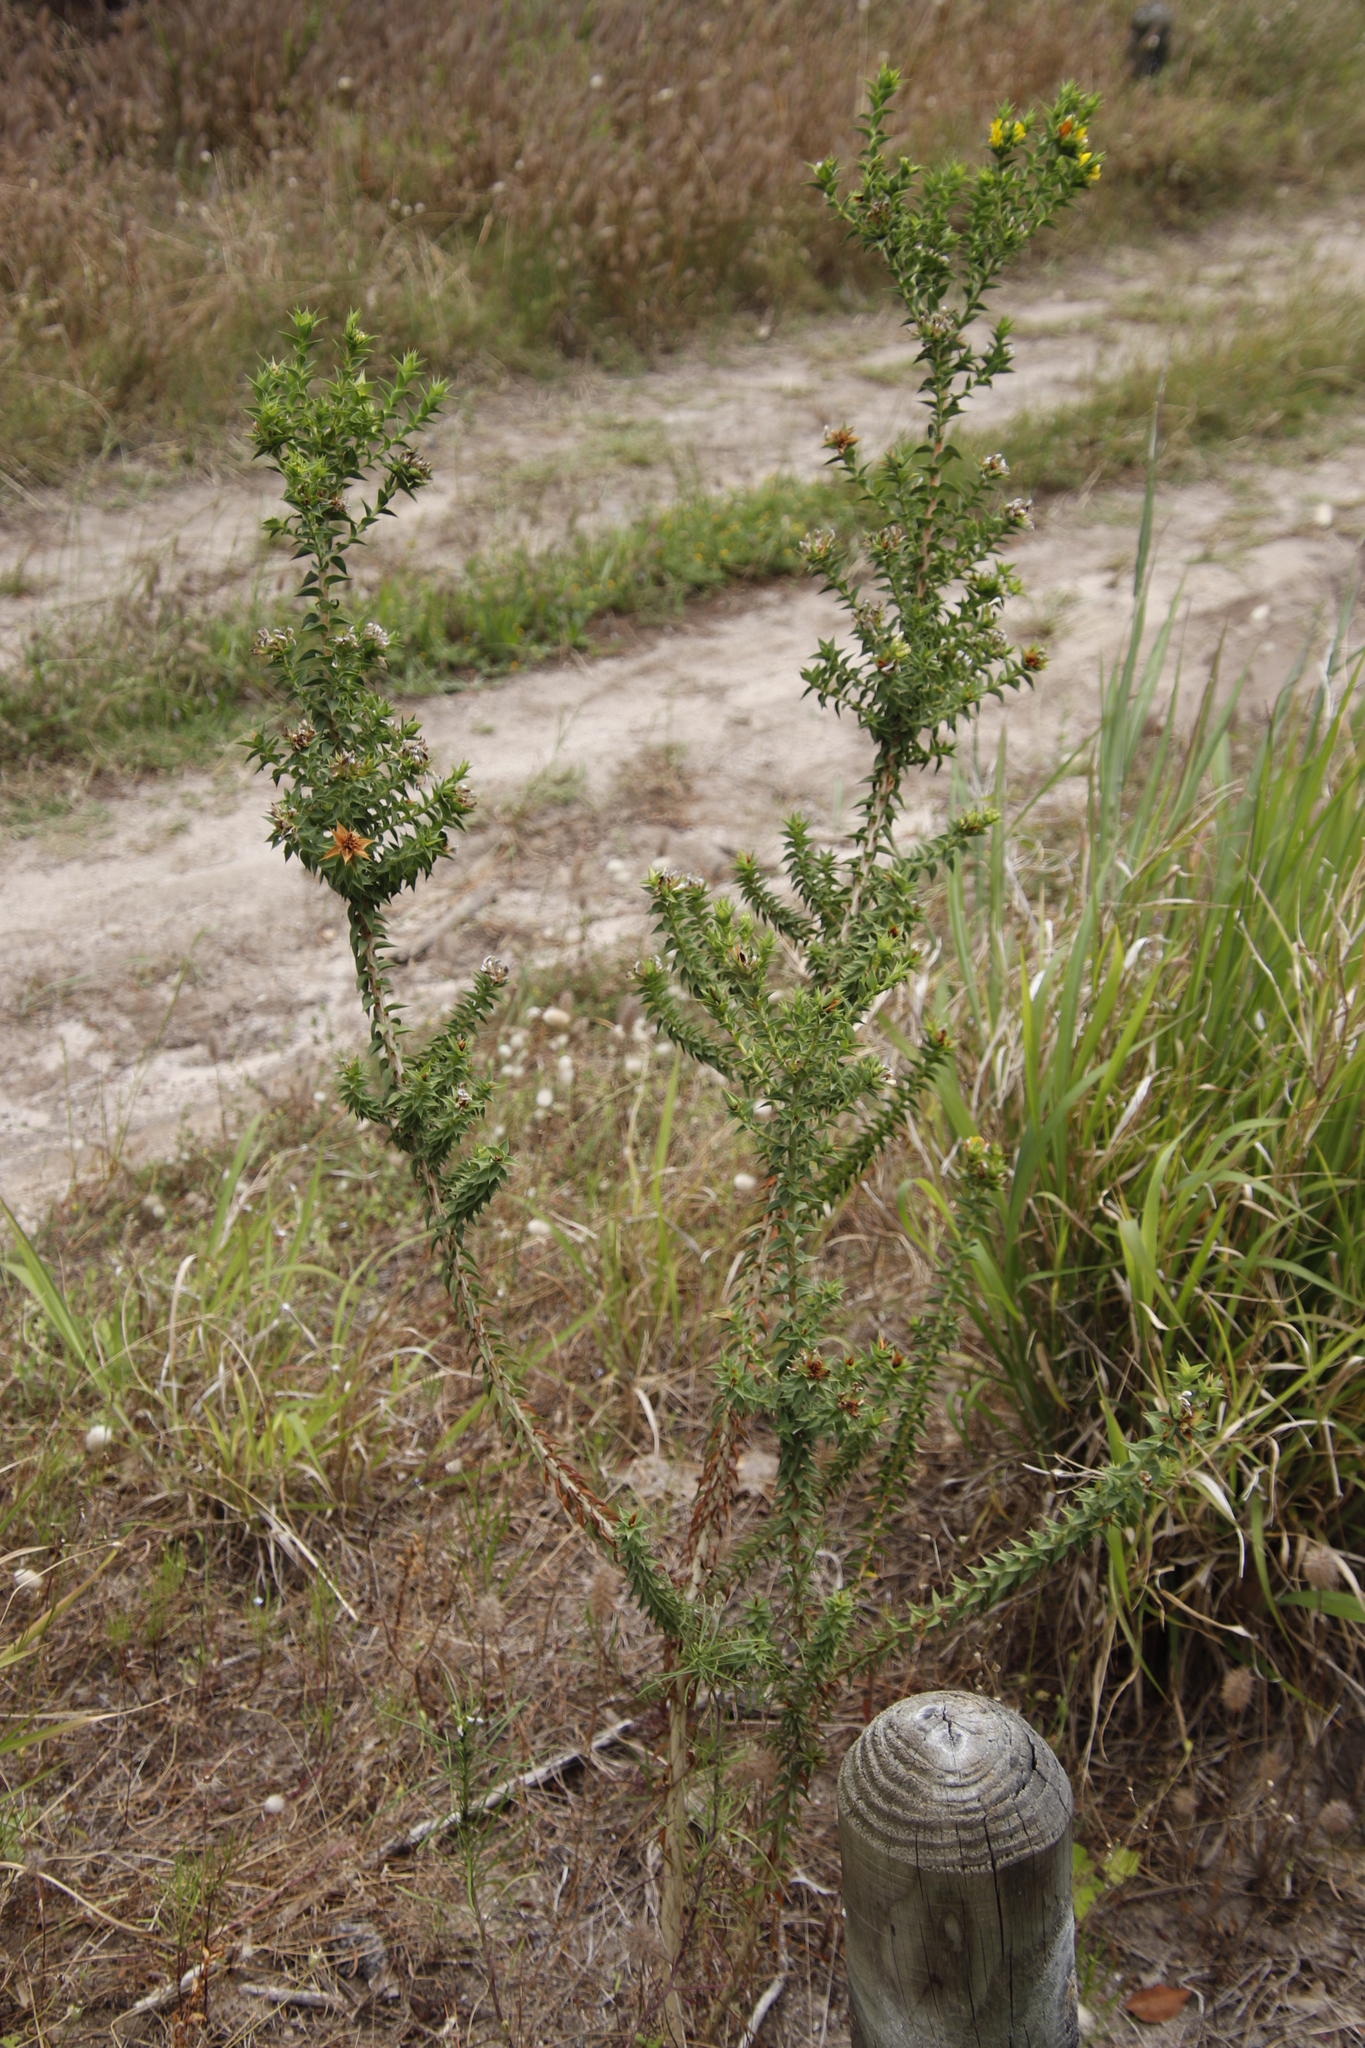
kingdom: Plantae
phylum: Tracheophyta
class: Magnoliopsida
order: Fabales
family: Fabaceae
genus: Aspalathus
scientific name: Aspalathus cordata
